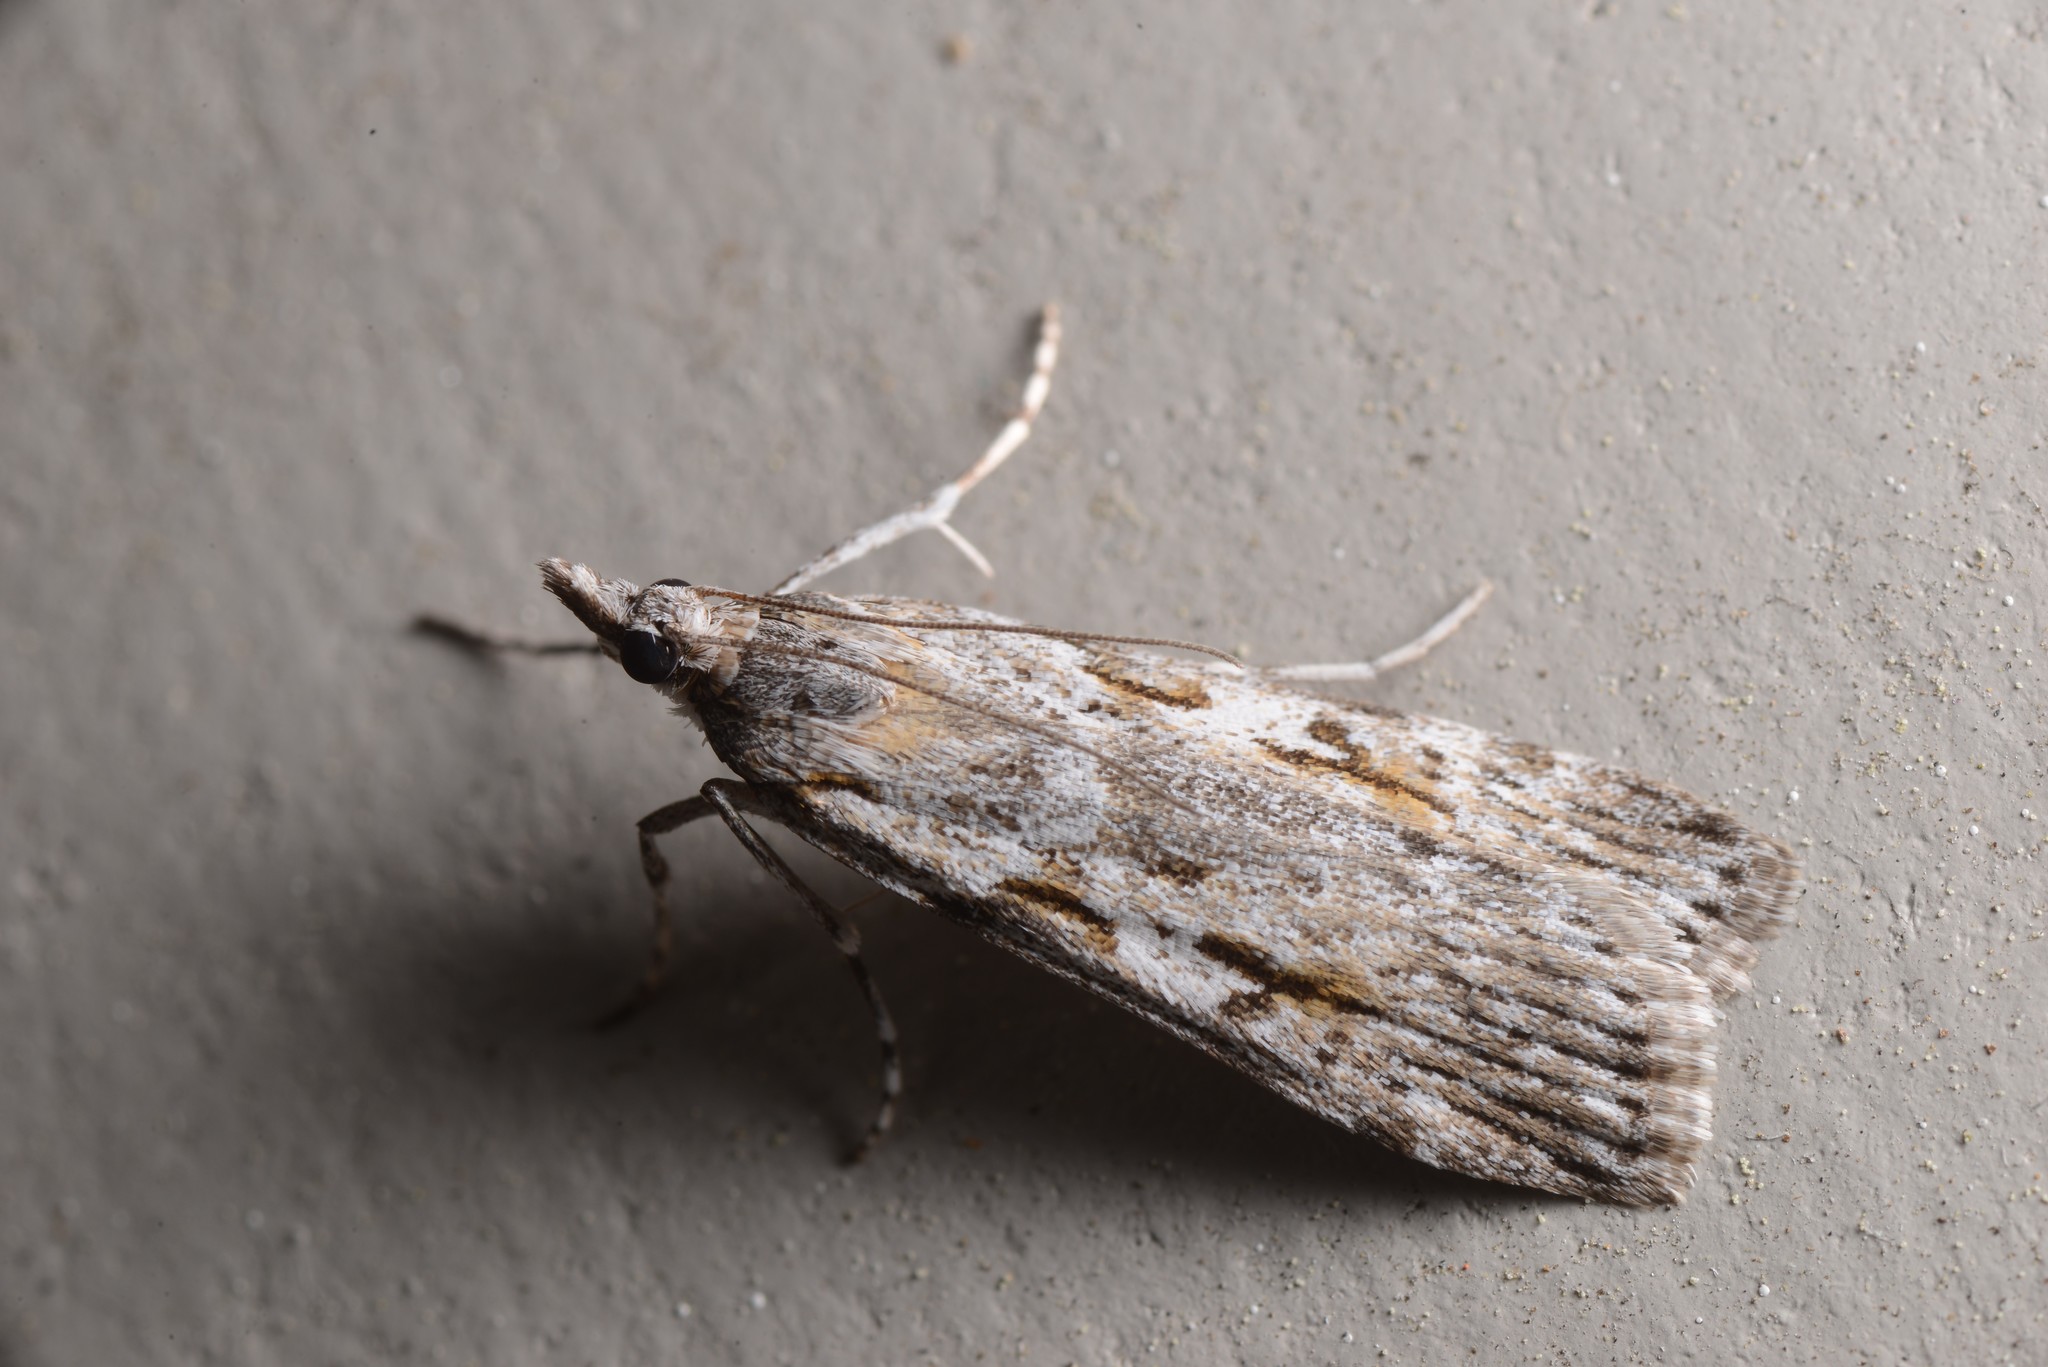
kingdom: Animalia
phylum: Arthropoda
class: Insecta
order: Lepidoptera
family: Crambidae
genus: Scoparia
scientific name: Scoparia halopis
